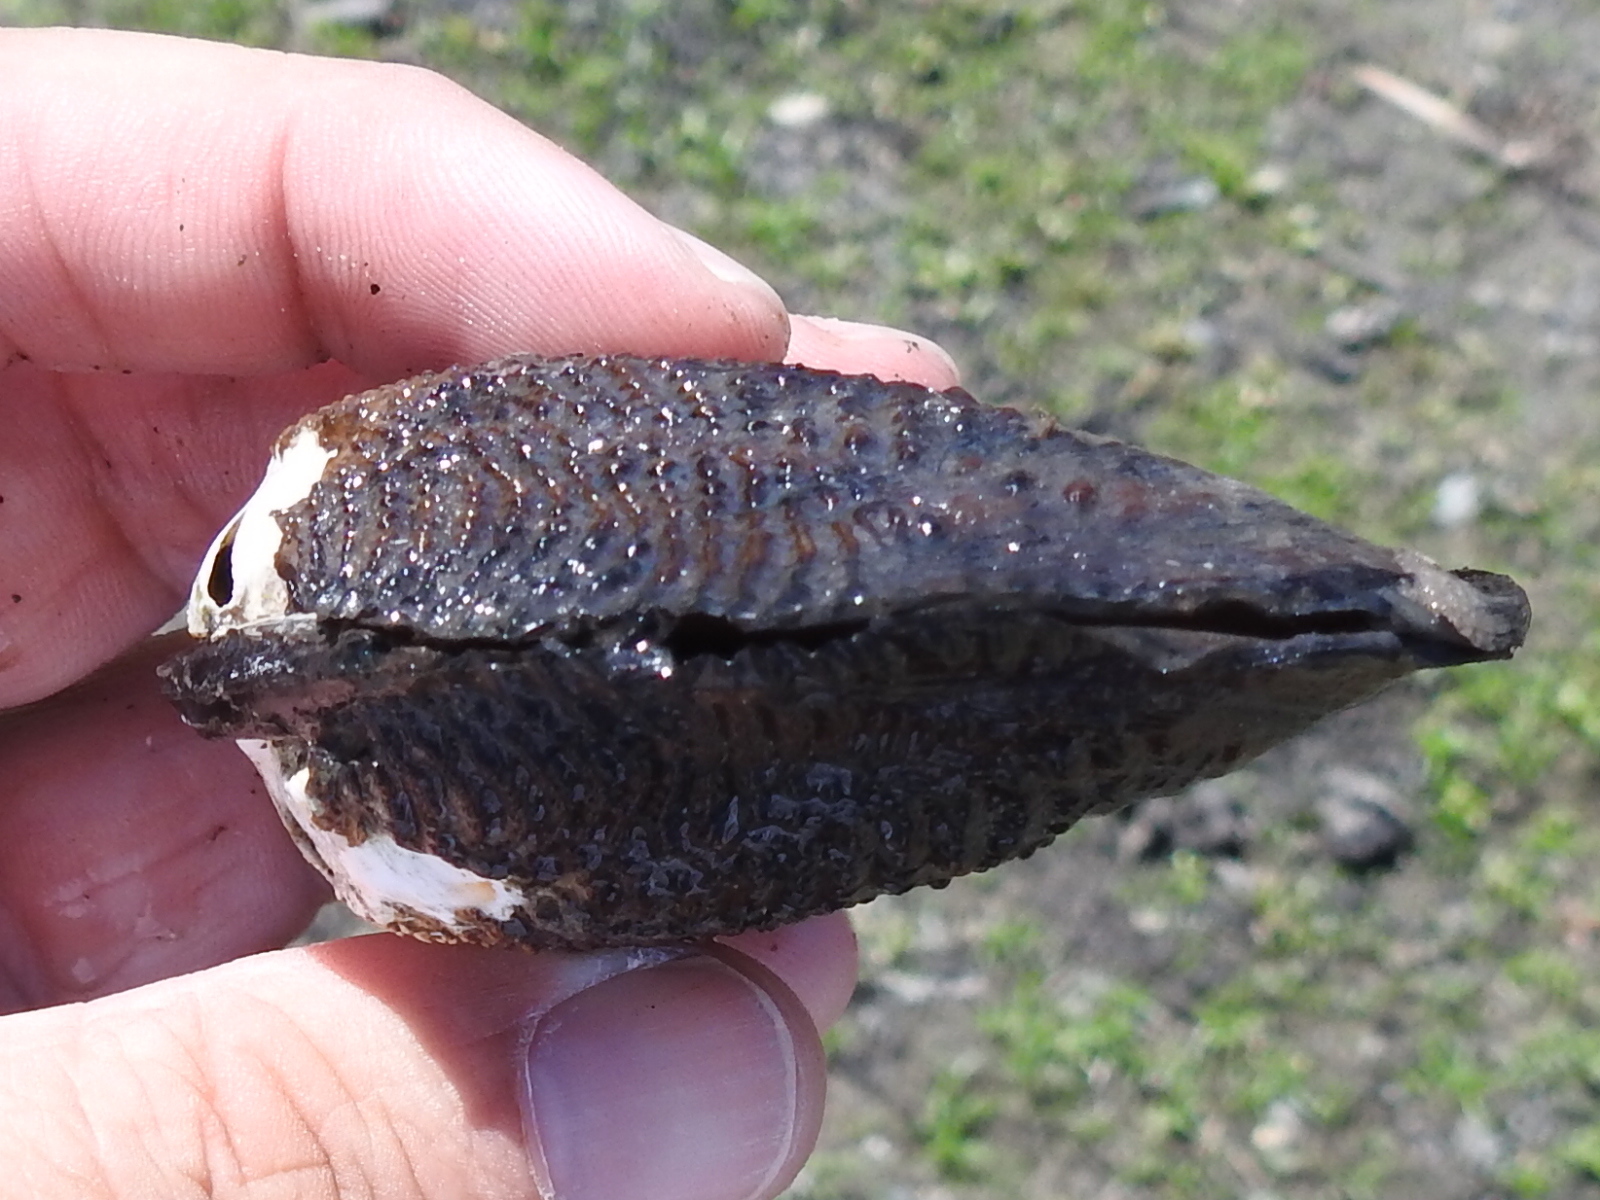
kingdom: Animalia
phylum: Mollusca
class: Bivalvia
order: Unionida
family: Unionidae
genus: Quadrula
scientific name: Quadrula quadrula
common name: Mapleleaf
